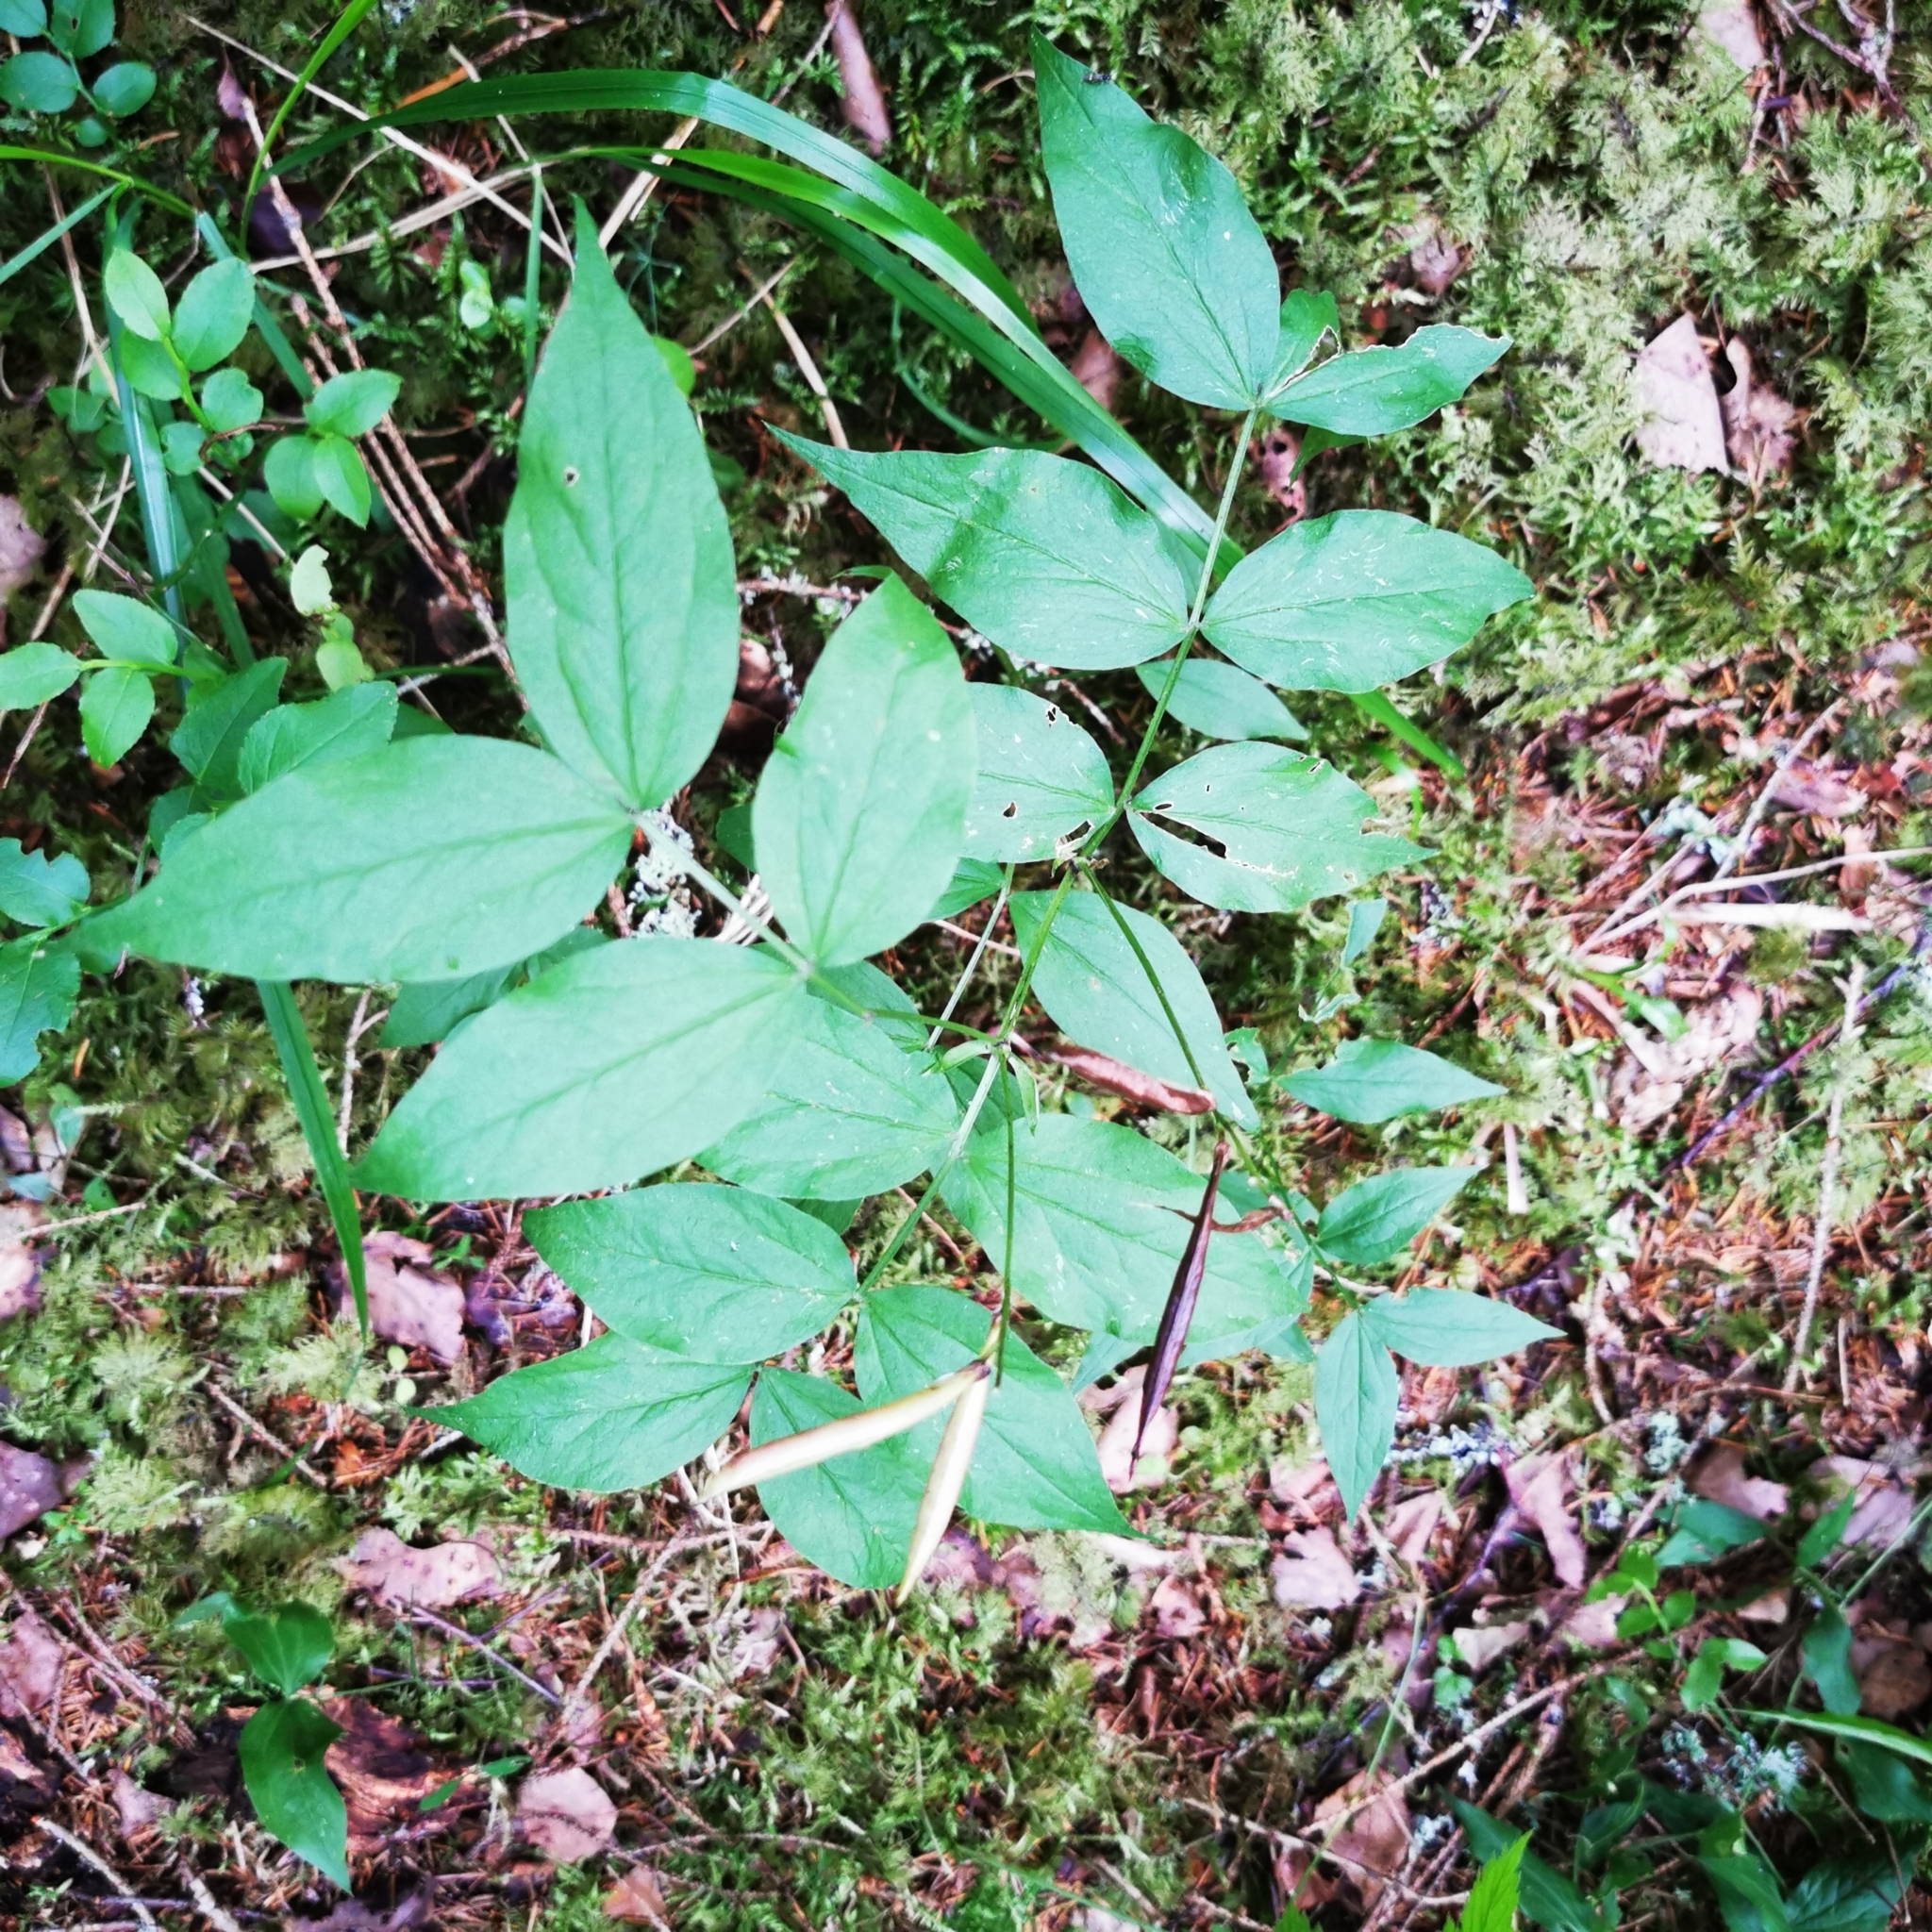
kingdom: Plantae
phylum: Tracheophyta
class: Magnoliopsida
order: Fabales
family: Fabaceae
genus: Lathyrus
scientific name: Lathyrus vernus
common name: Spring pea
